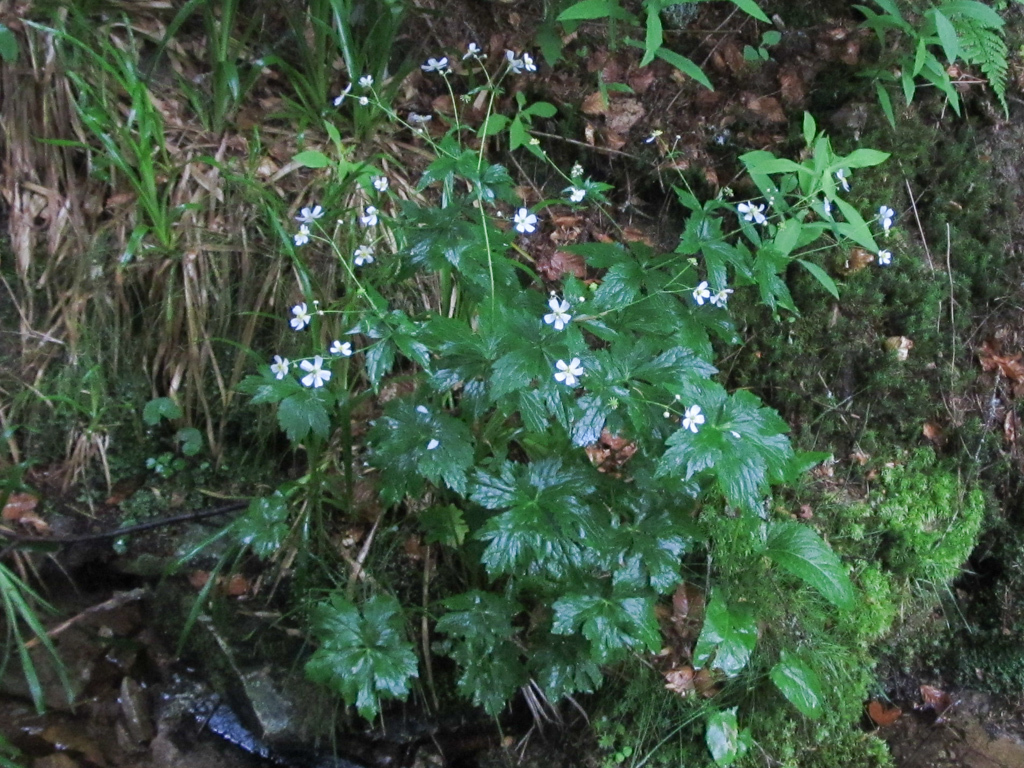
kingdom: Plantae
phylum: Tracheophyta
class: Magnoliopsida
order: Ranunculales
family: Ranunculaceae
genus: Ranunculus
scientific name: Ranunculus aconitifolius
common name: Aconite-leaved buttercup
